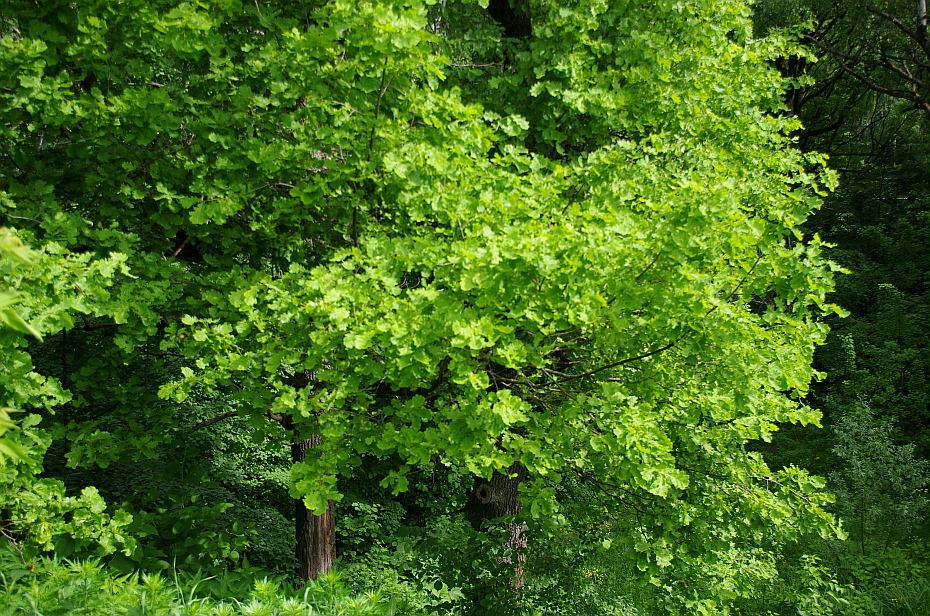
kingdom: Plantae
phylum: Tracheophyta
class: Magnoliopsida
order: Fagales
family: Fagaceae
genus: Quercus
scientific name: Quercus robur
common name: Pedunculate oak
